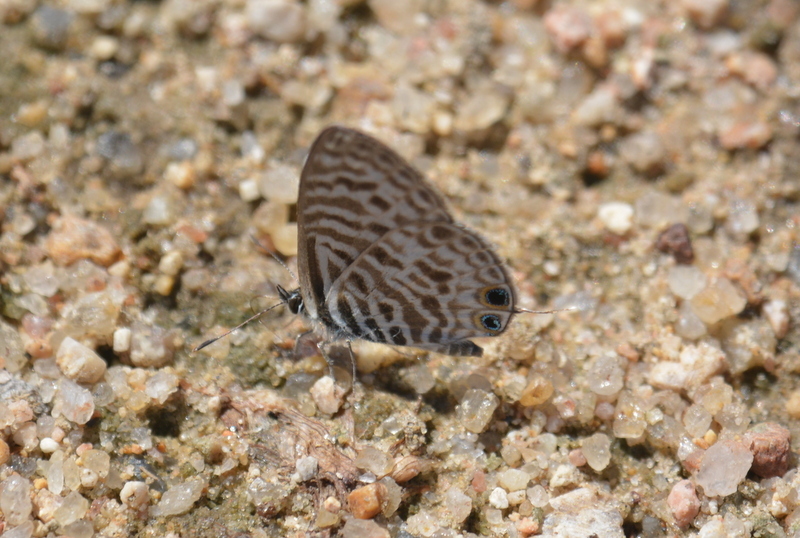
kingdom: Animalia
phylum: Arthropoda
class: Insecta
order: Lepidoptera
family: Lycaenidae
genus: Leptotes
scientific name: Leptotes
